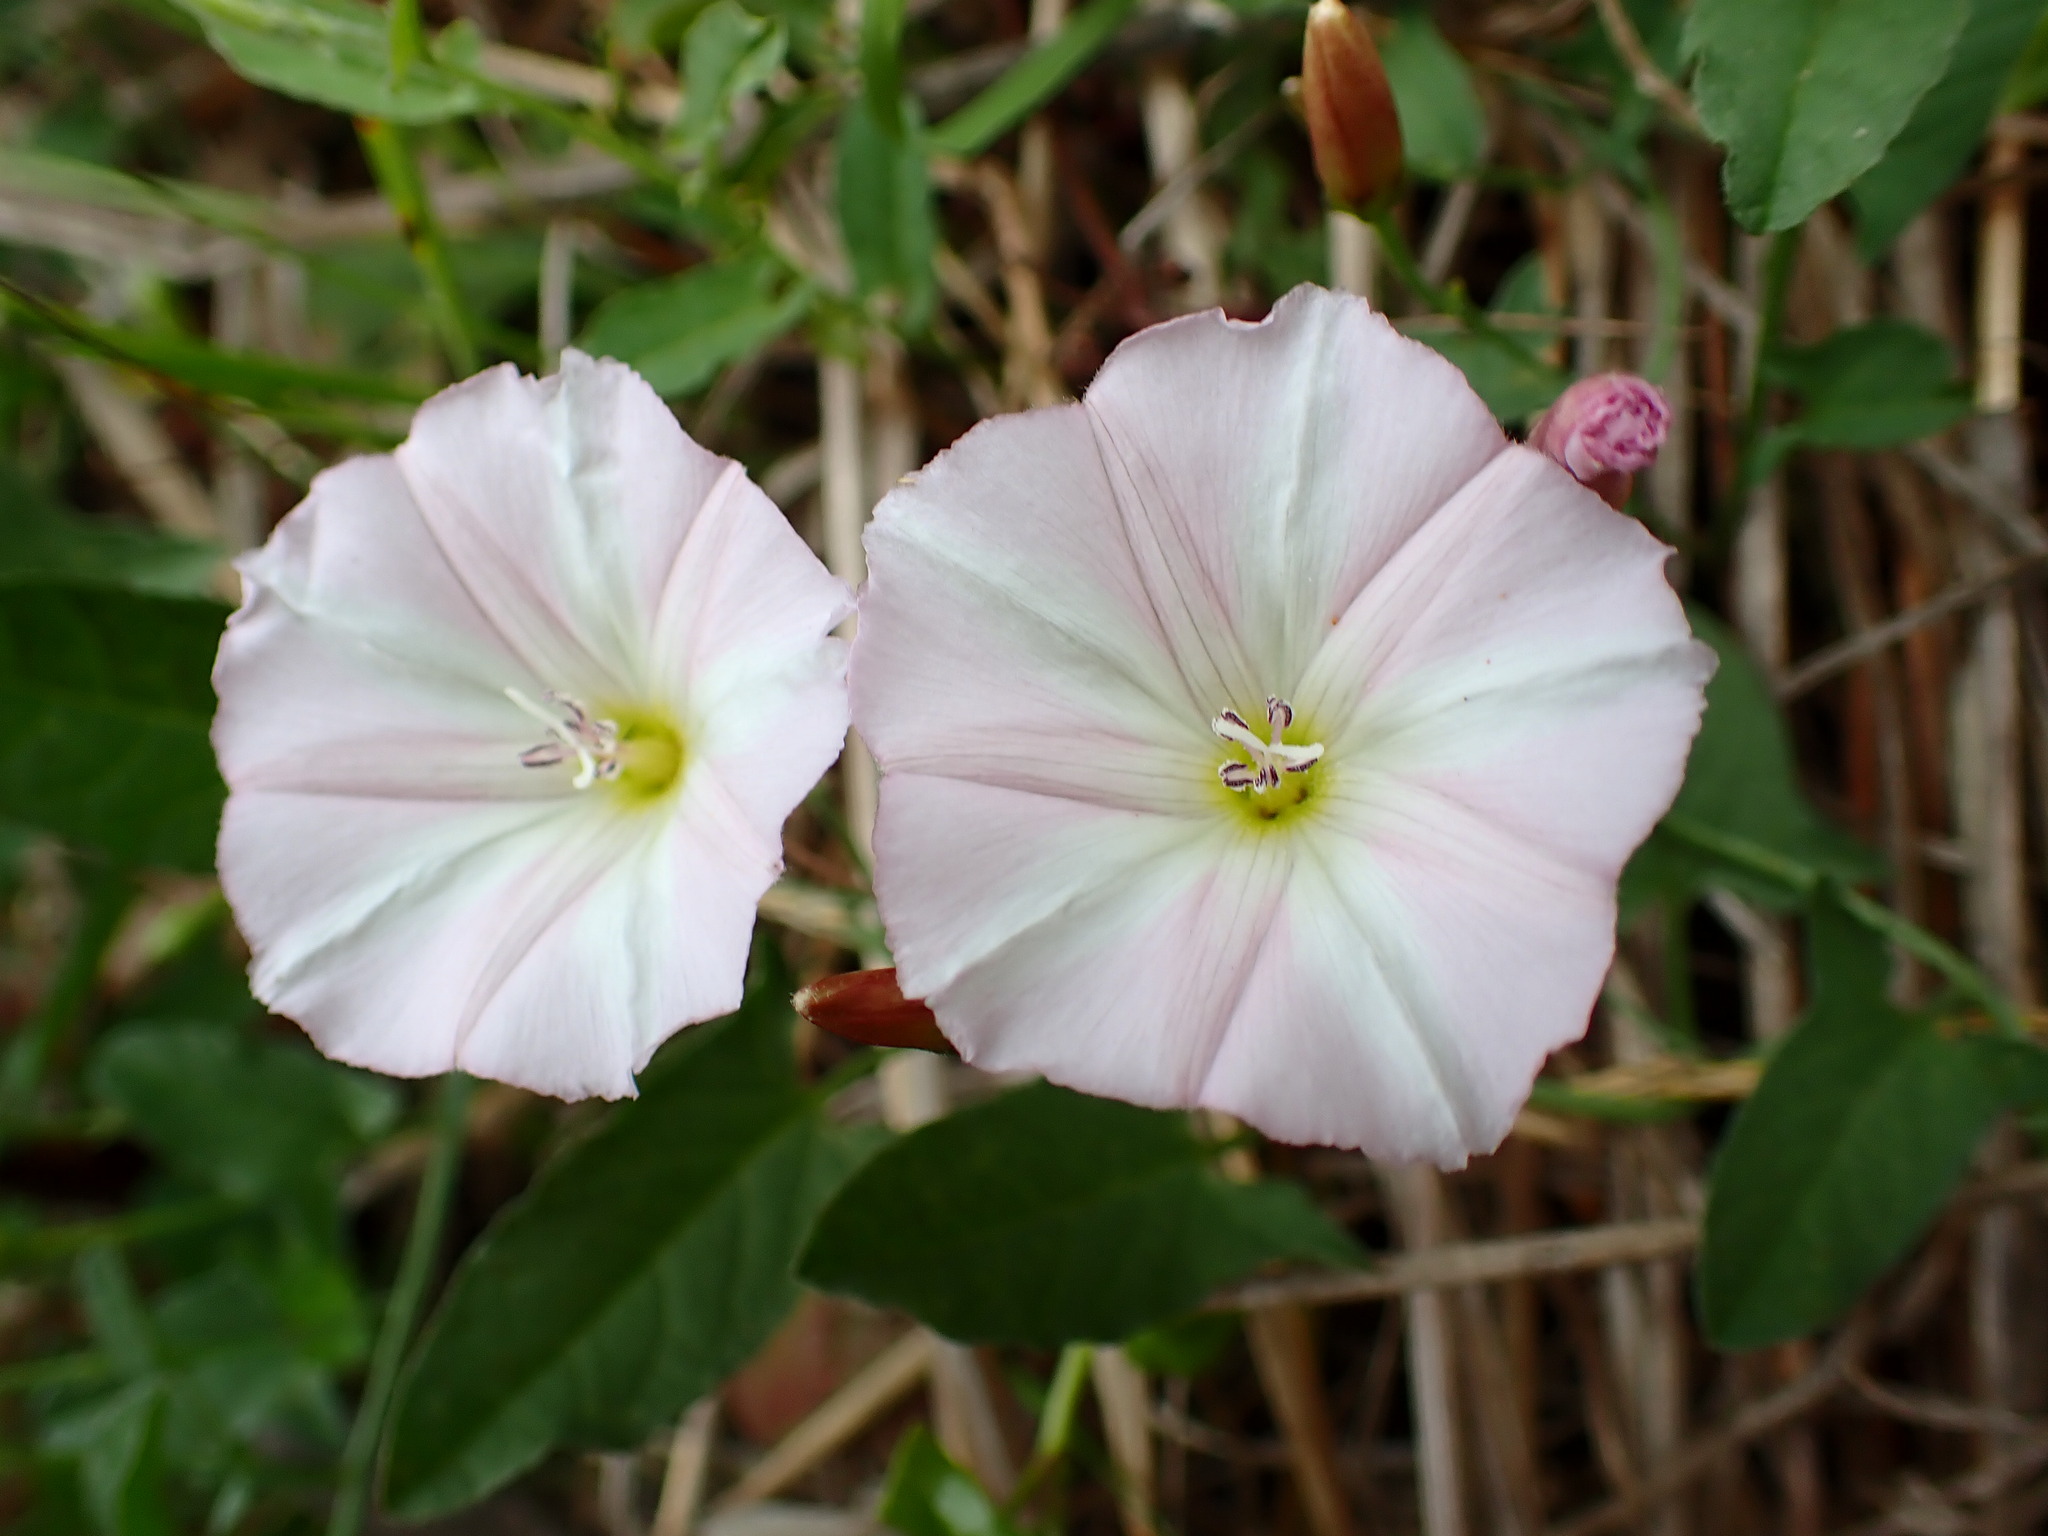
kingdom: Plantae
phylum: Tracheophyta
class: Magnoliopsida
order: Solanales
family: Convolvulaceae
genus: Convolvulus
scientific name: Convolvulus arvensis
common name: Field bindweed
